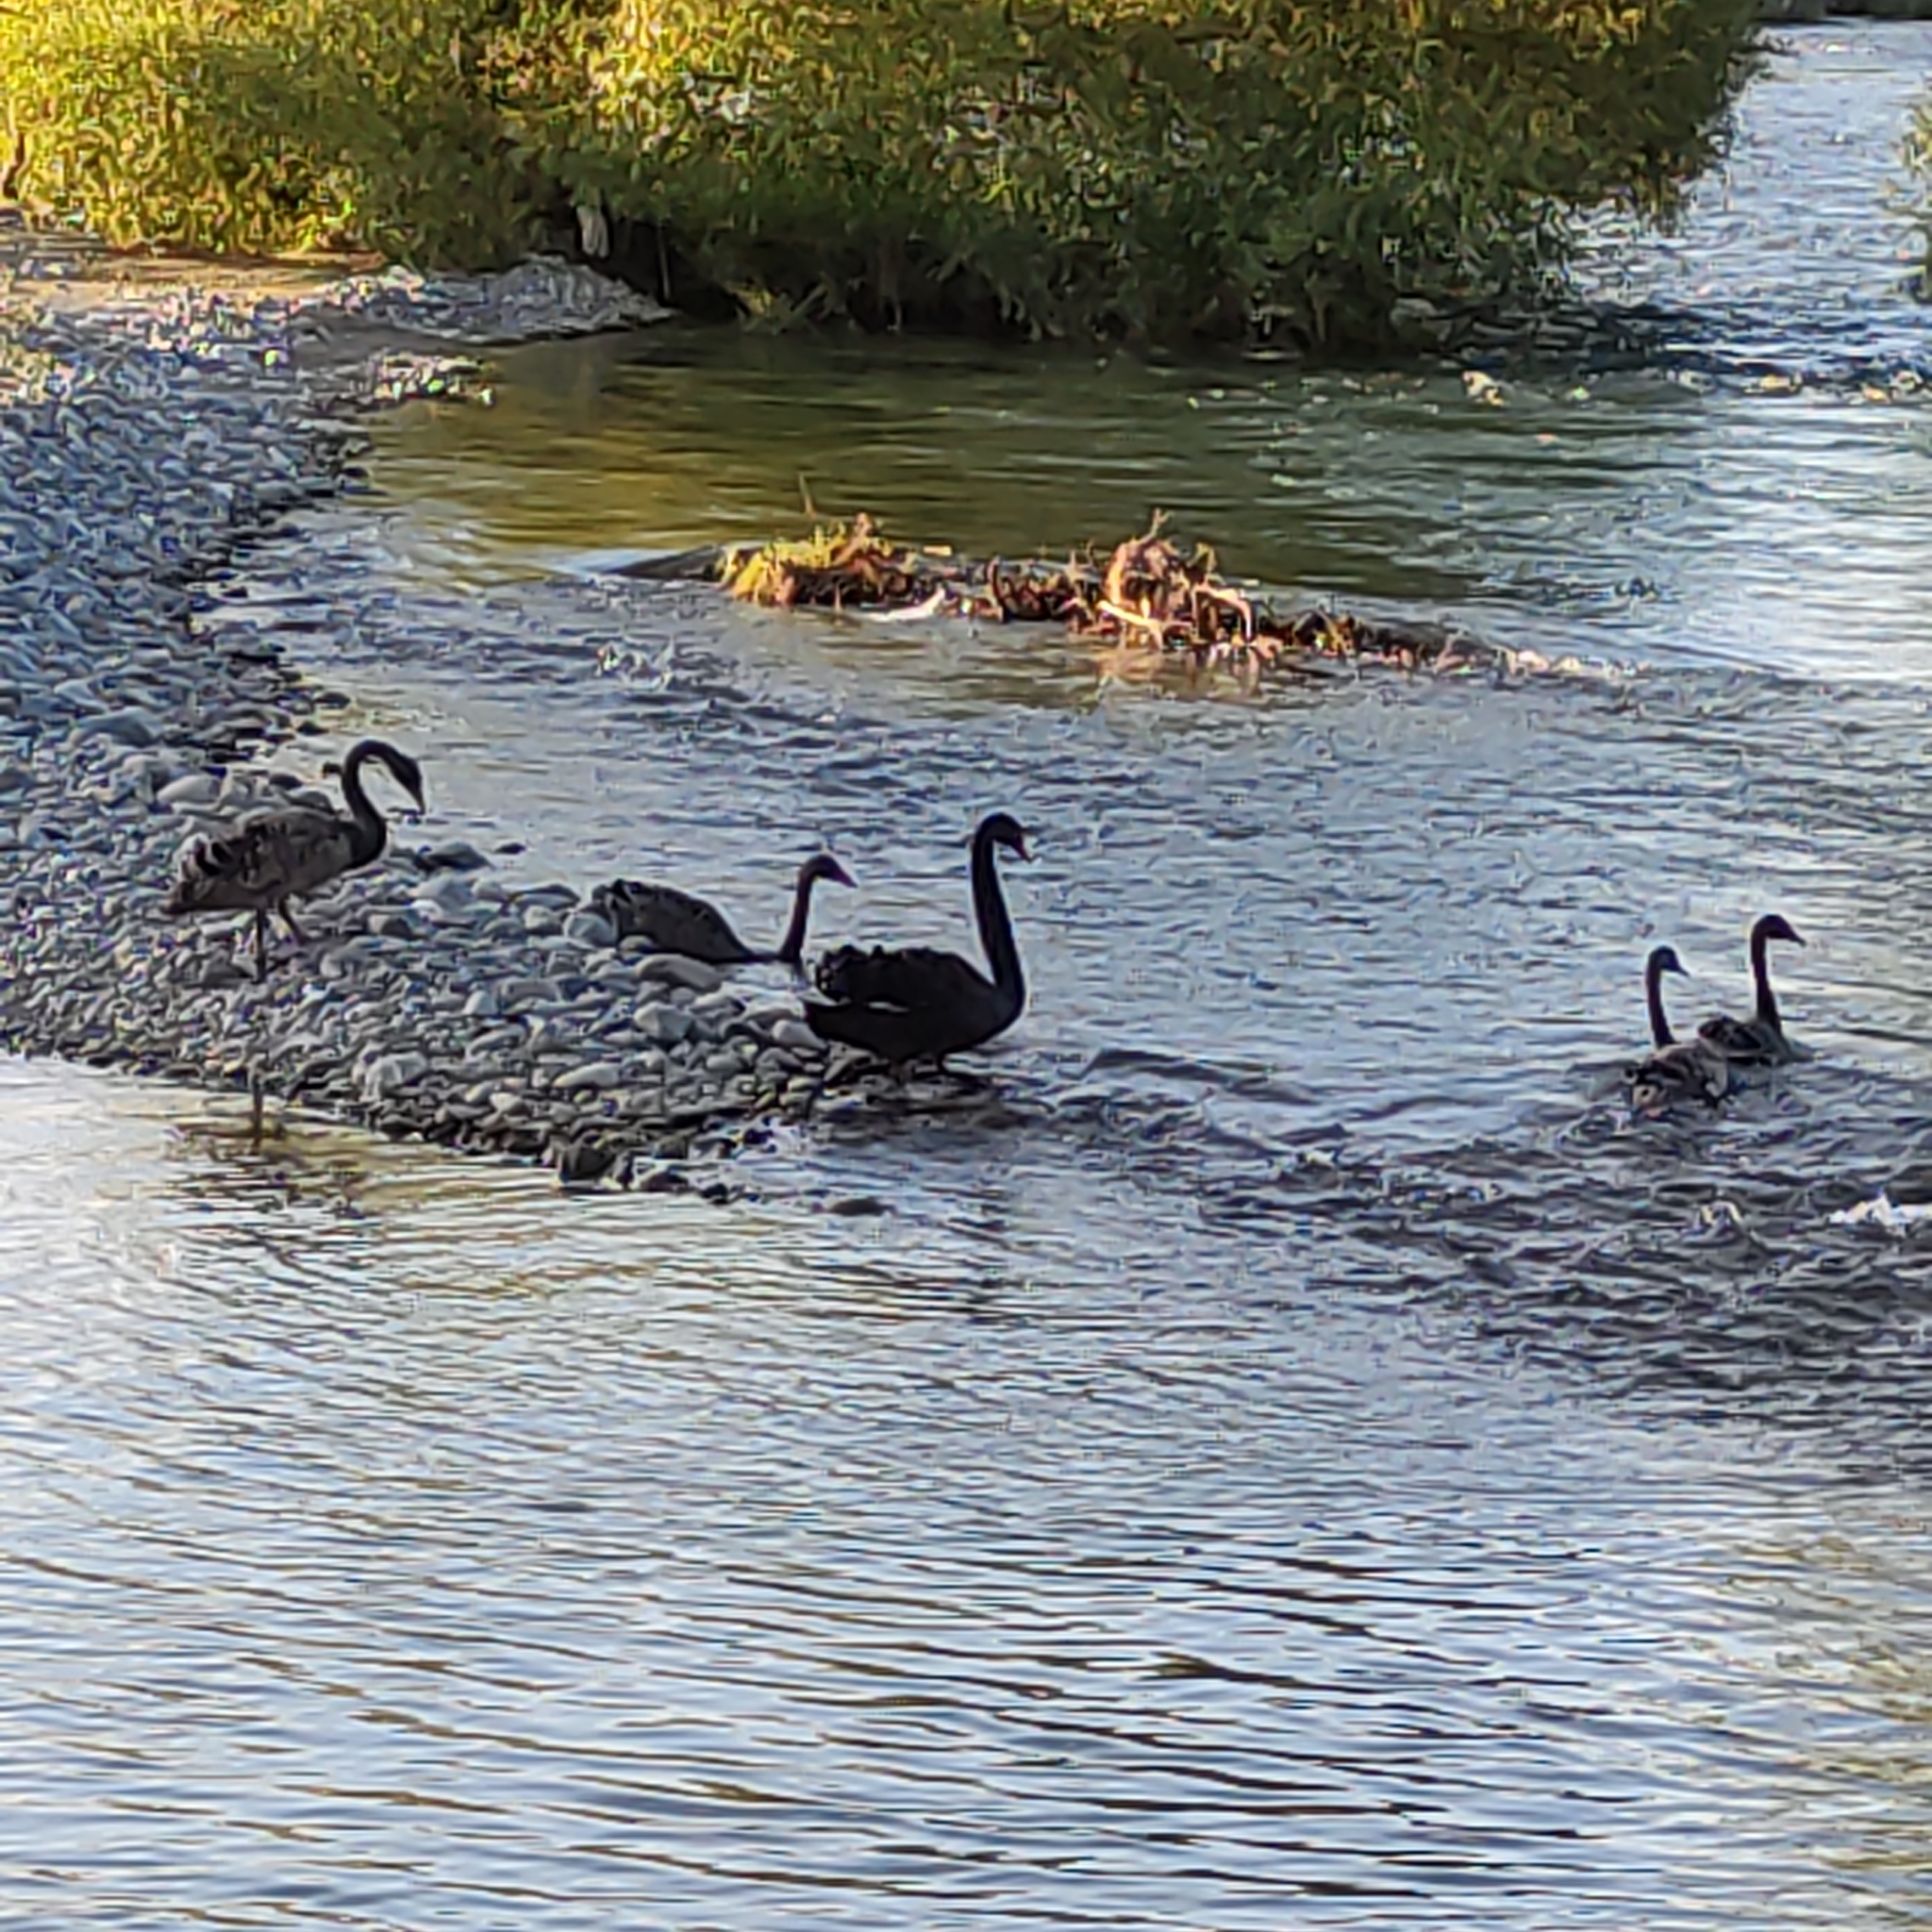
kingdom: Animalia
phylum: Chordata
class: Aves
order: Anseriformes
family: Anatidae
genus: Cygnus
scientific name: Cygnus atratus
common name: Black swan
